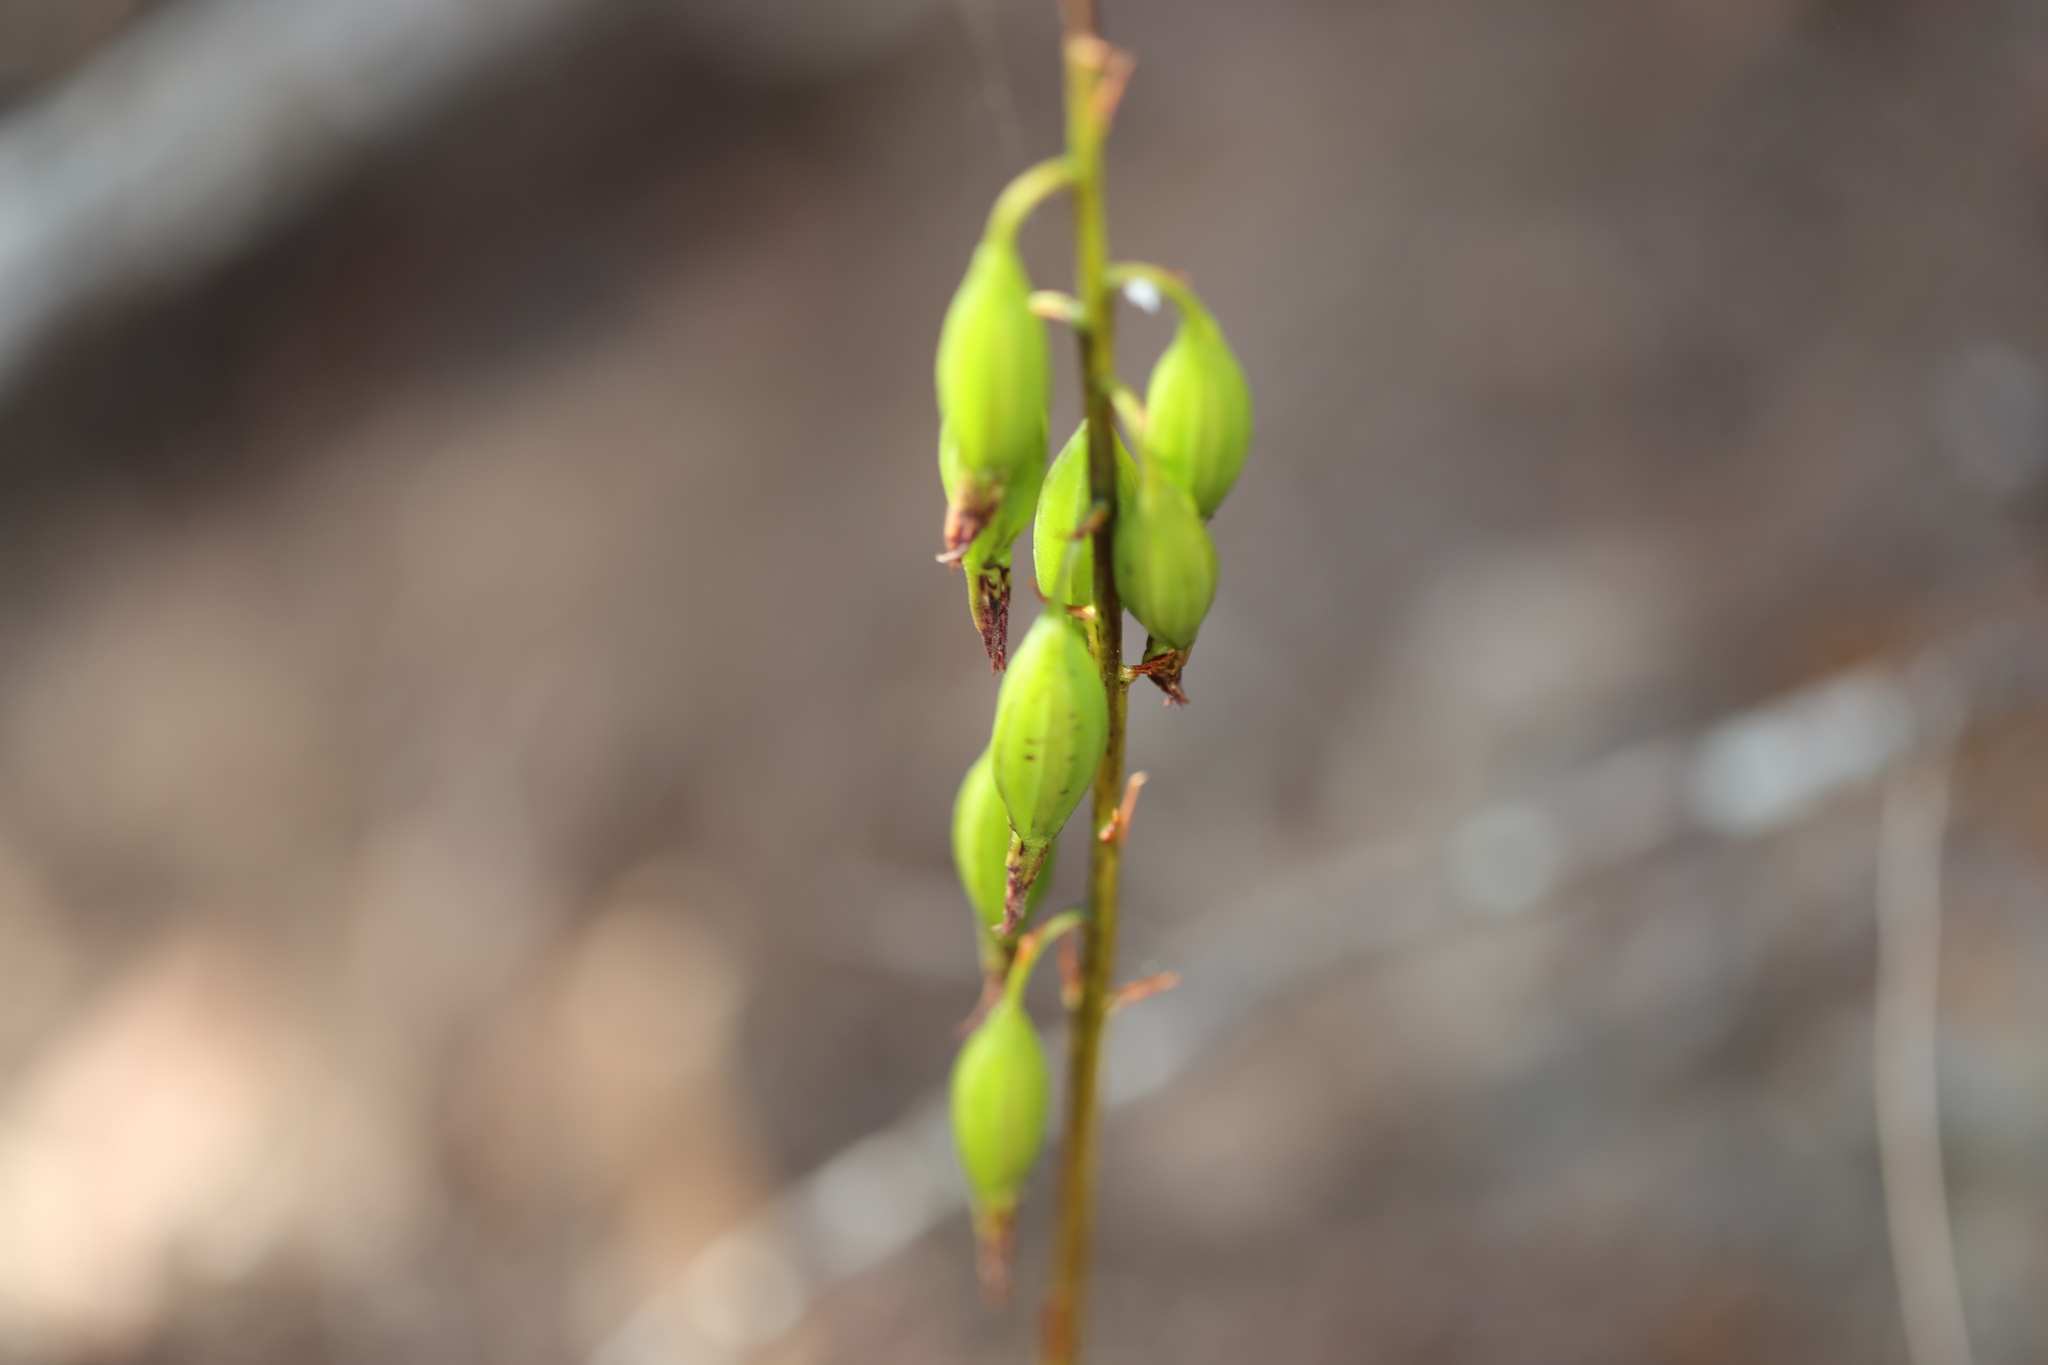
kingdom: Plantae
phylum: Tracheophyta
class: Liliopsida
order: Asparagales
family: Orchidaceae
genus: Dipodium
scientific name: Dipodium variegatum
